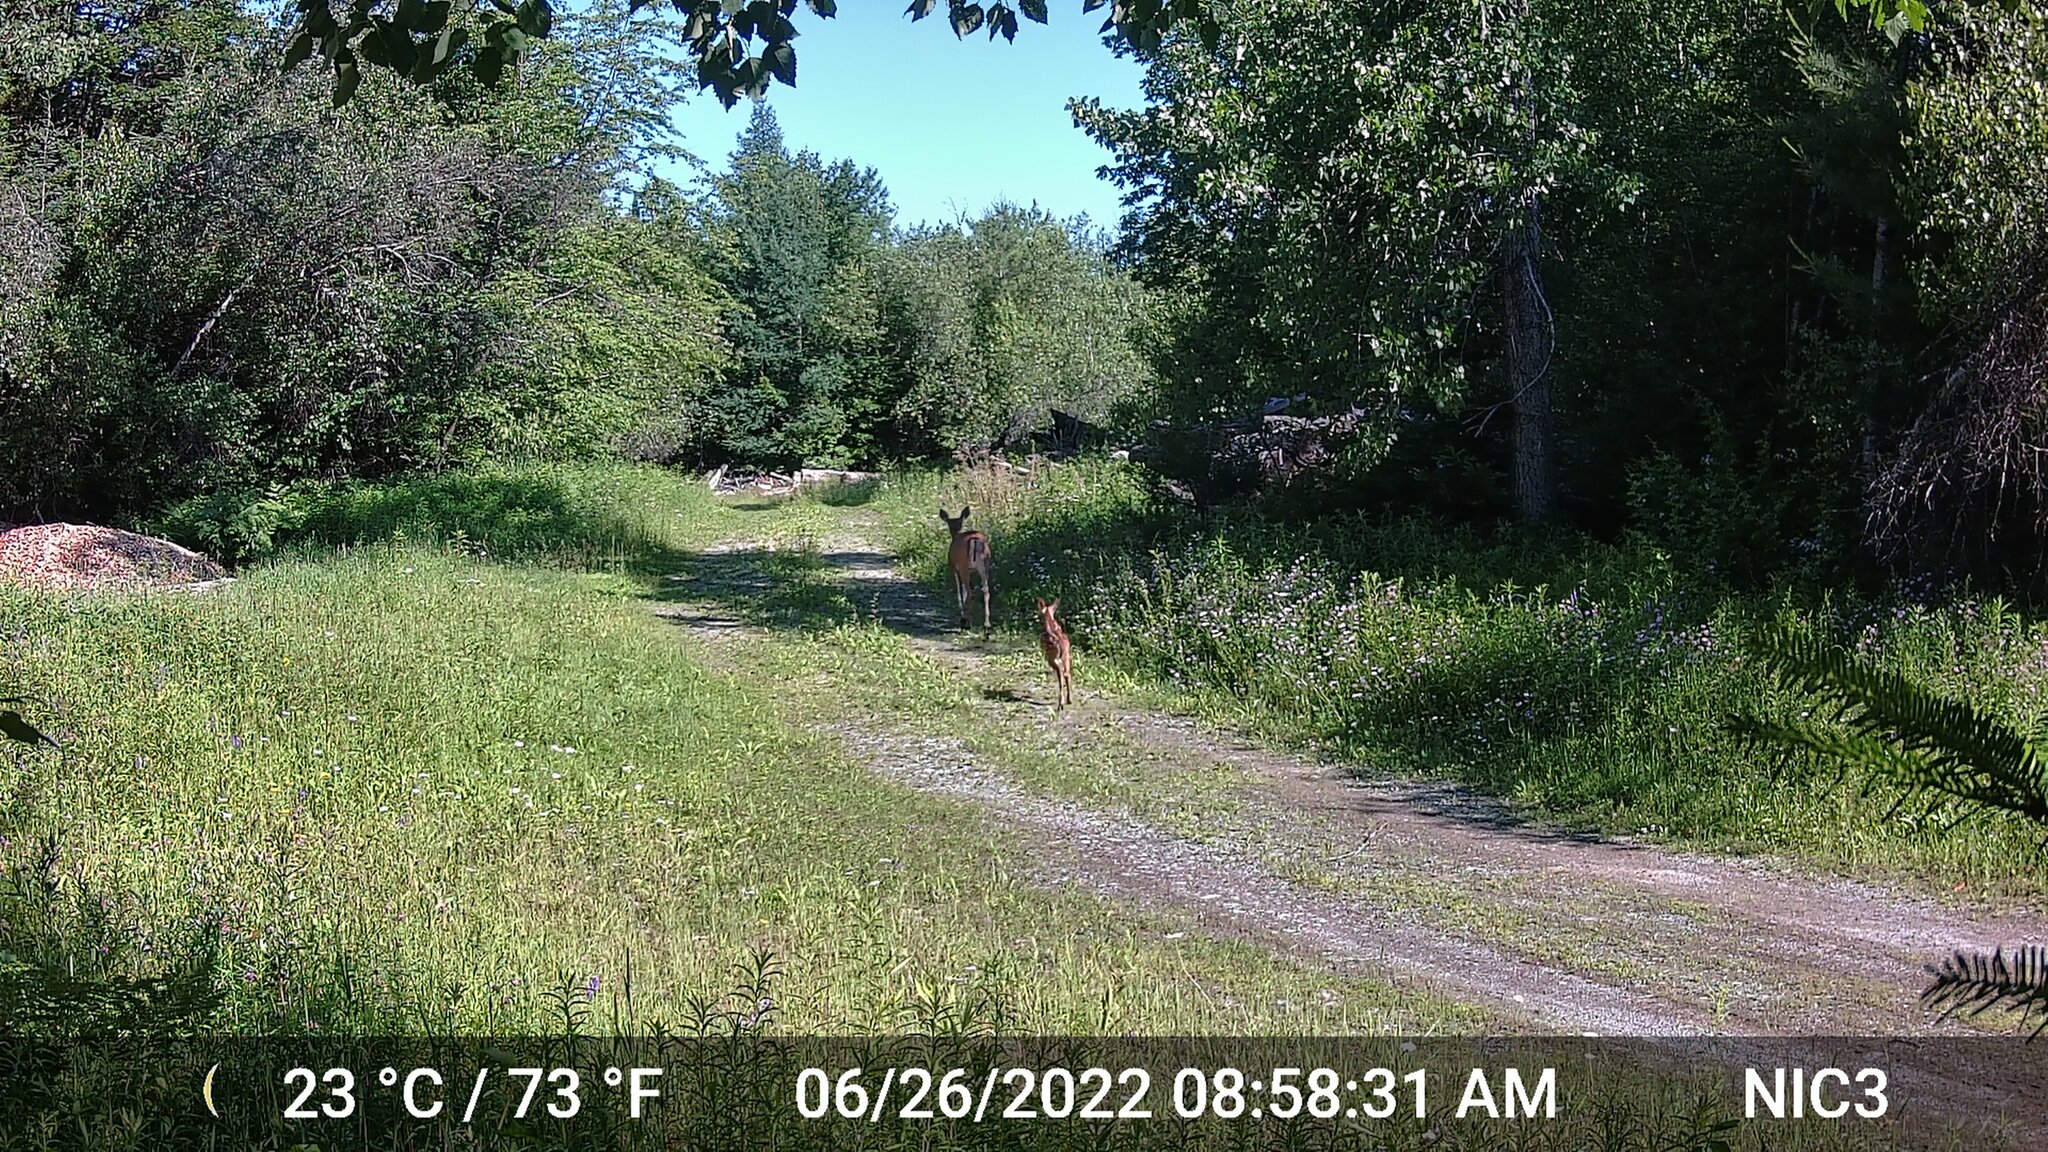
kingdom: Animalia
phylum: Chordata
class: Mammalia
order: Artiodactyla
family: Cervidae
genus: Odocoileus
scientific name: Odocoileus virginianus
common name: White-tailed deer
